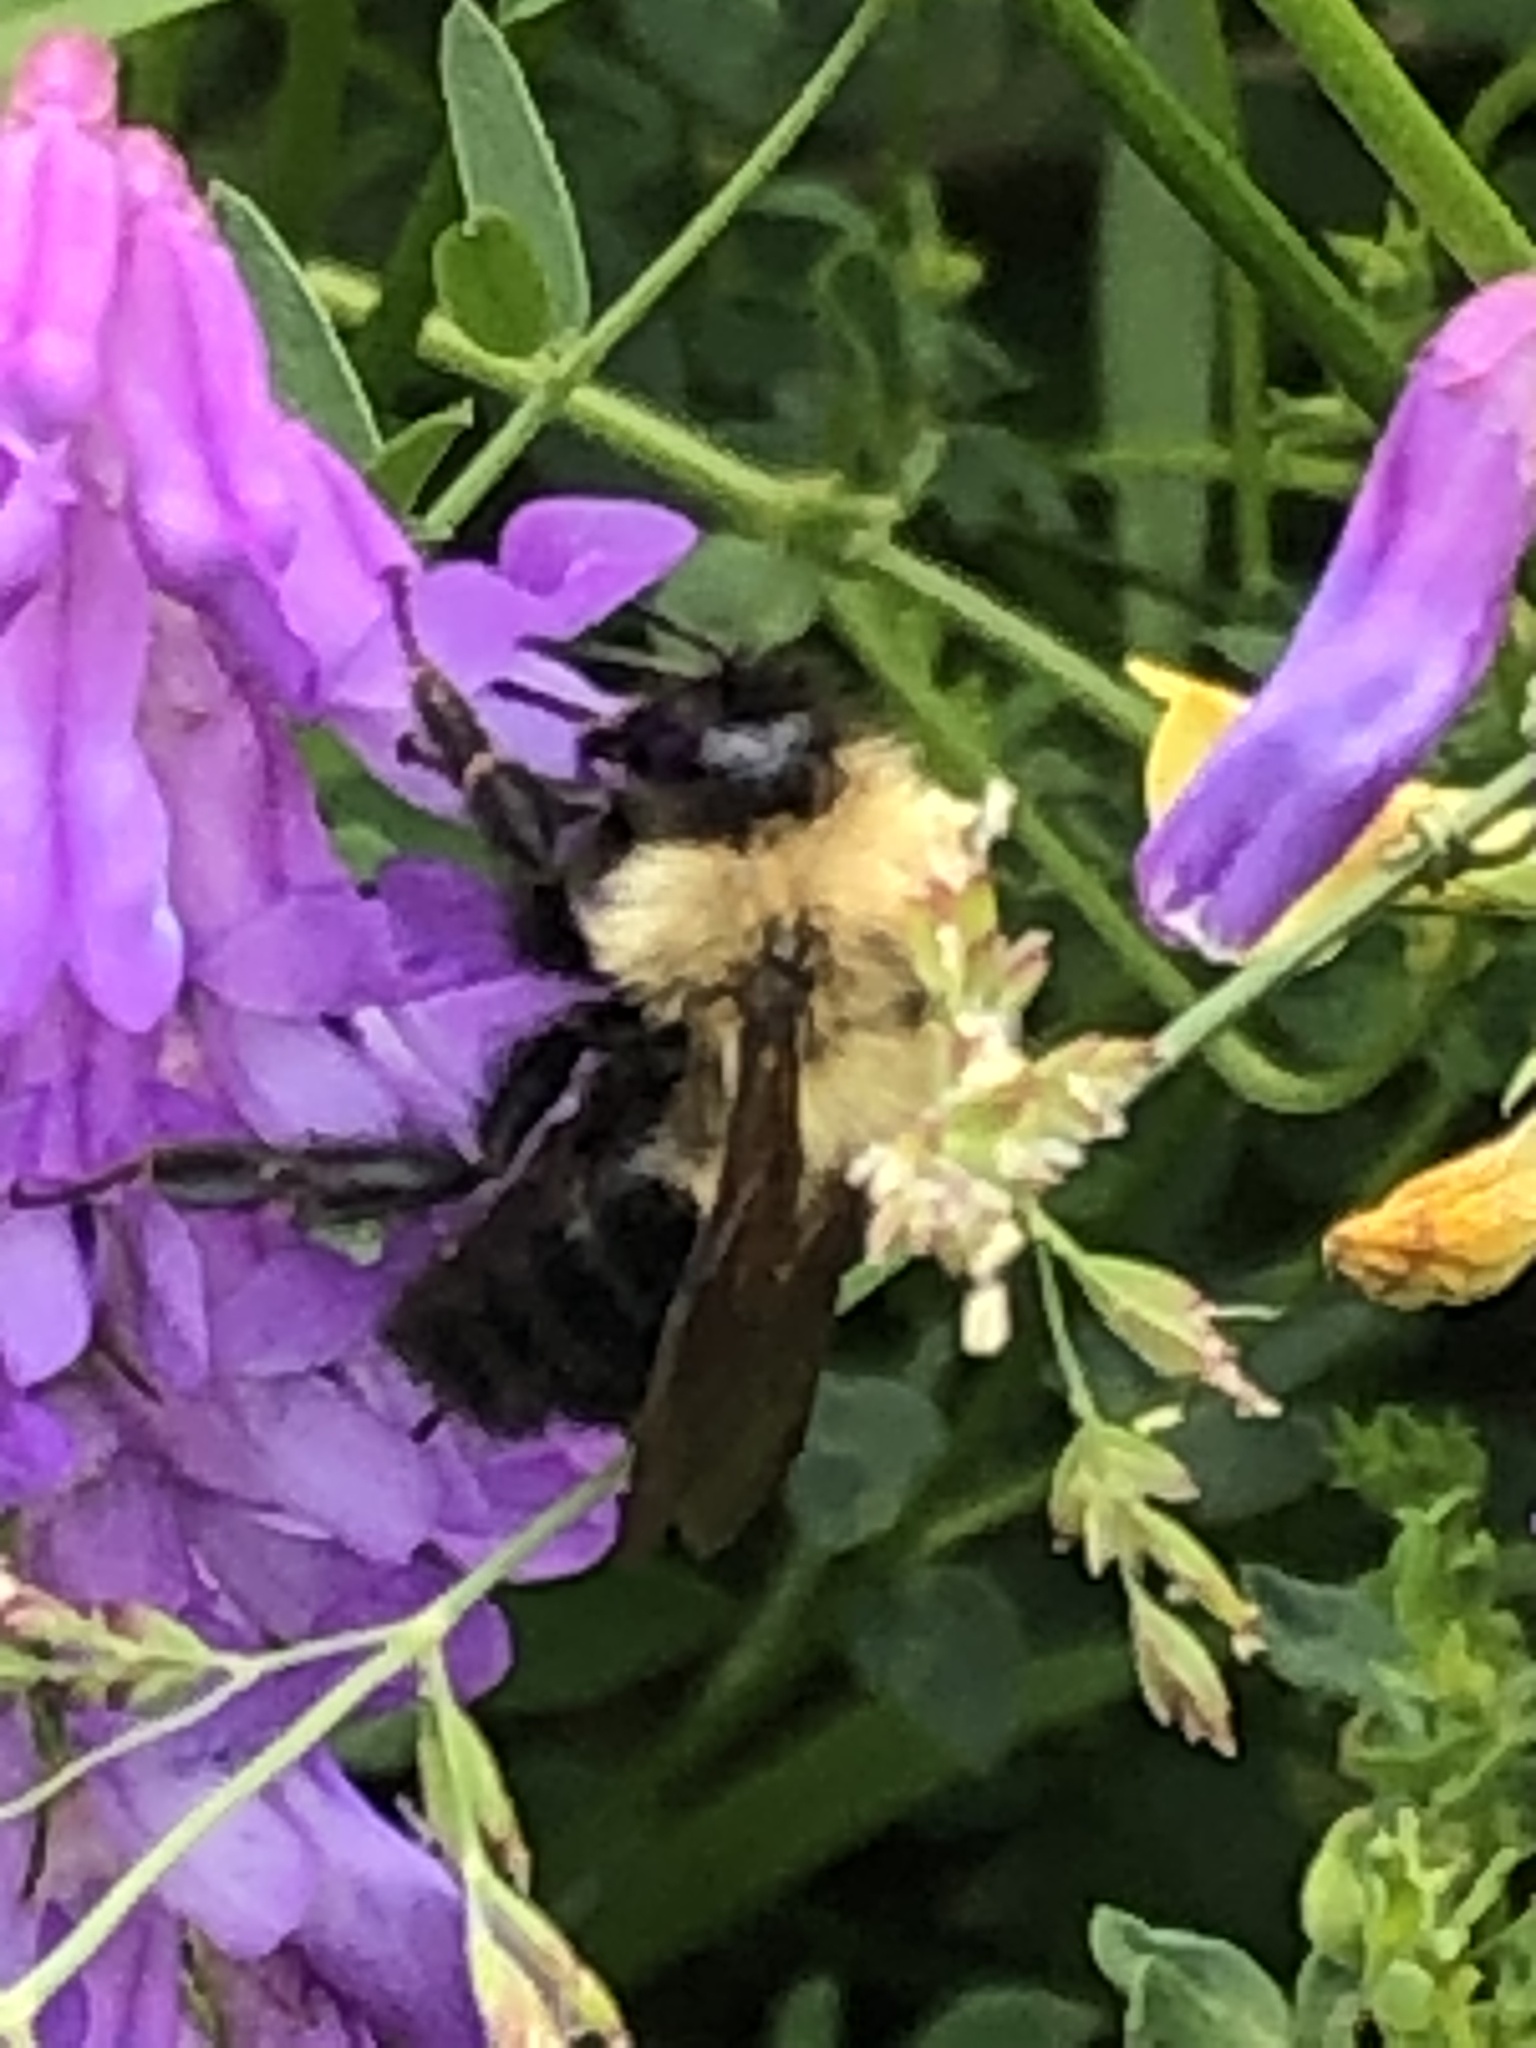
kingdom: Animalia
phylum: Arthropoda
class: Insecta
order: Hymenoptera
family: Apidae
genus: Bombus
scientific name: Bombus bimaculatus
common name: Two-spotted bumble bee
